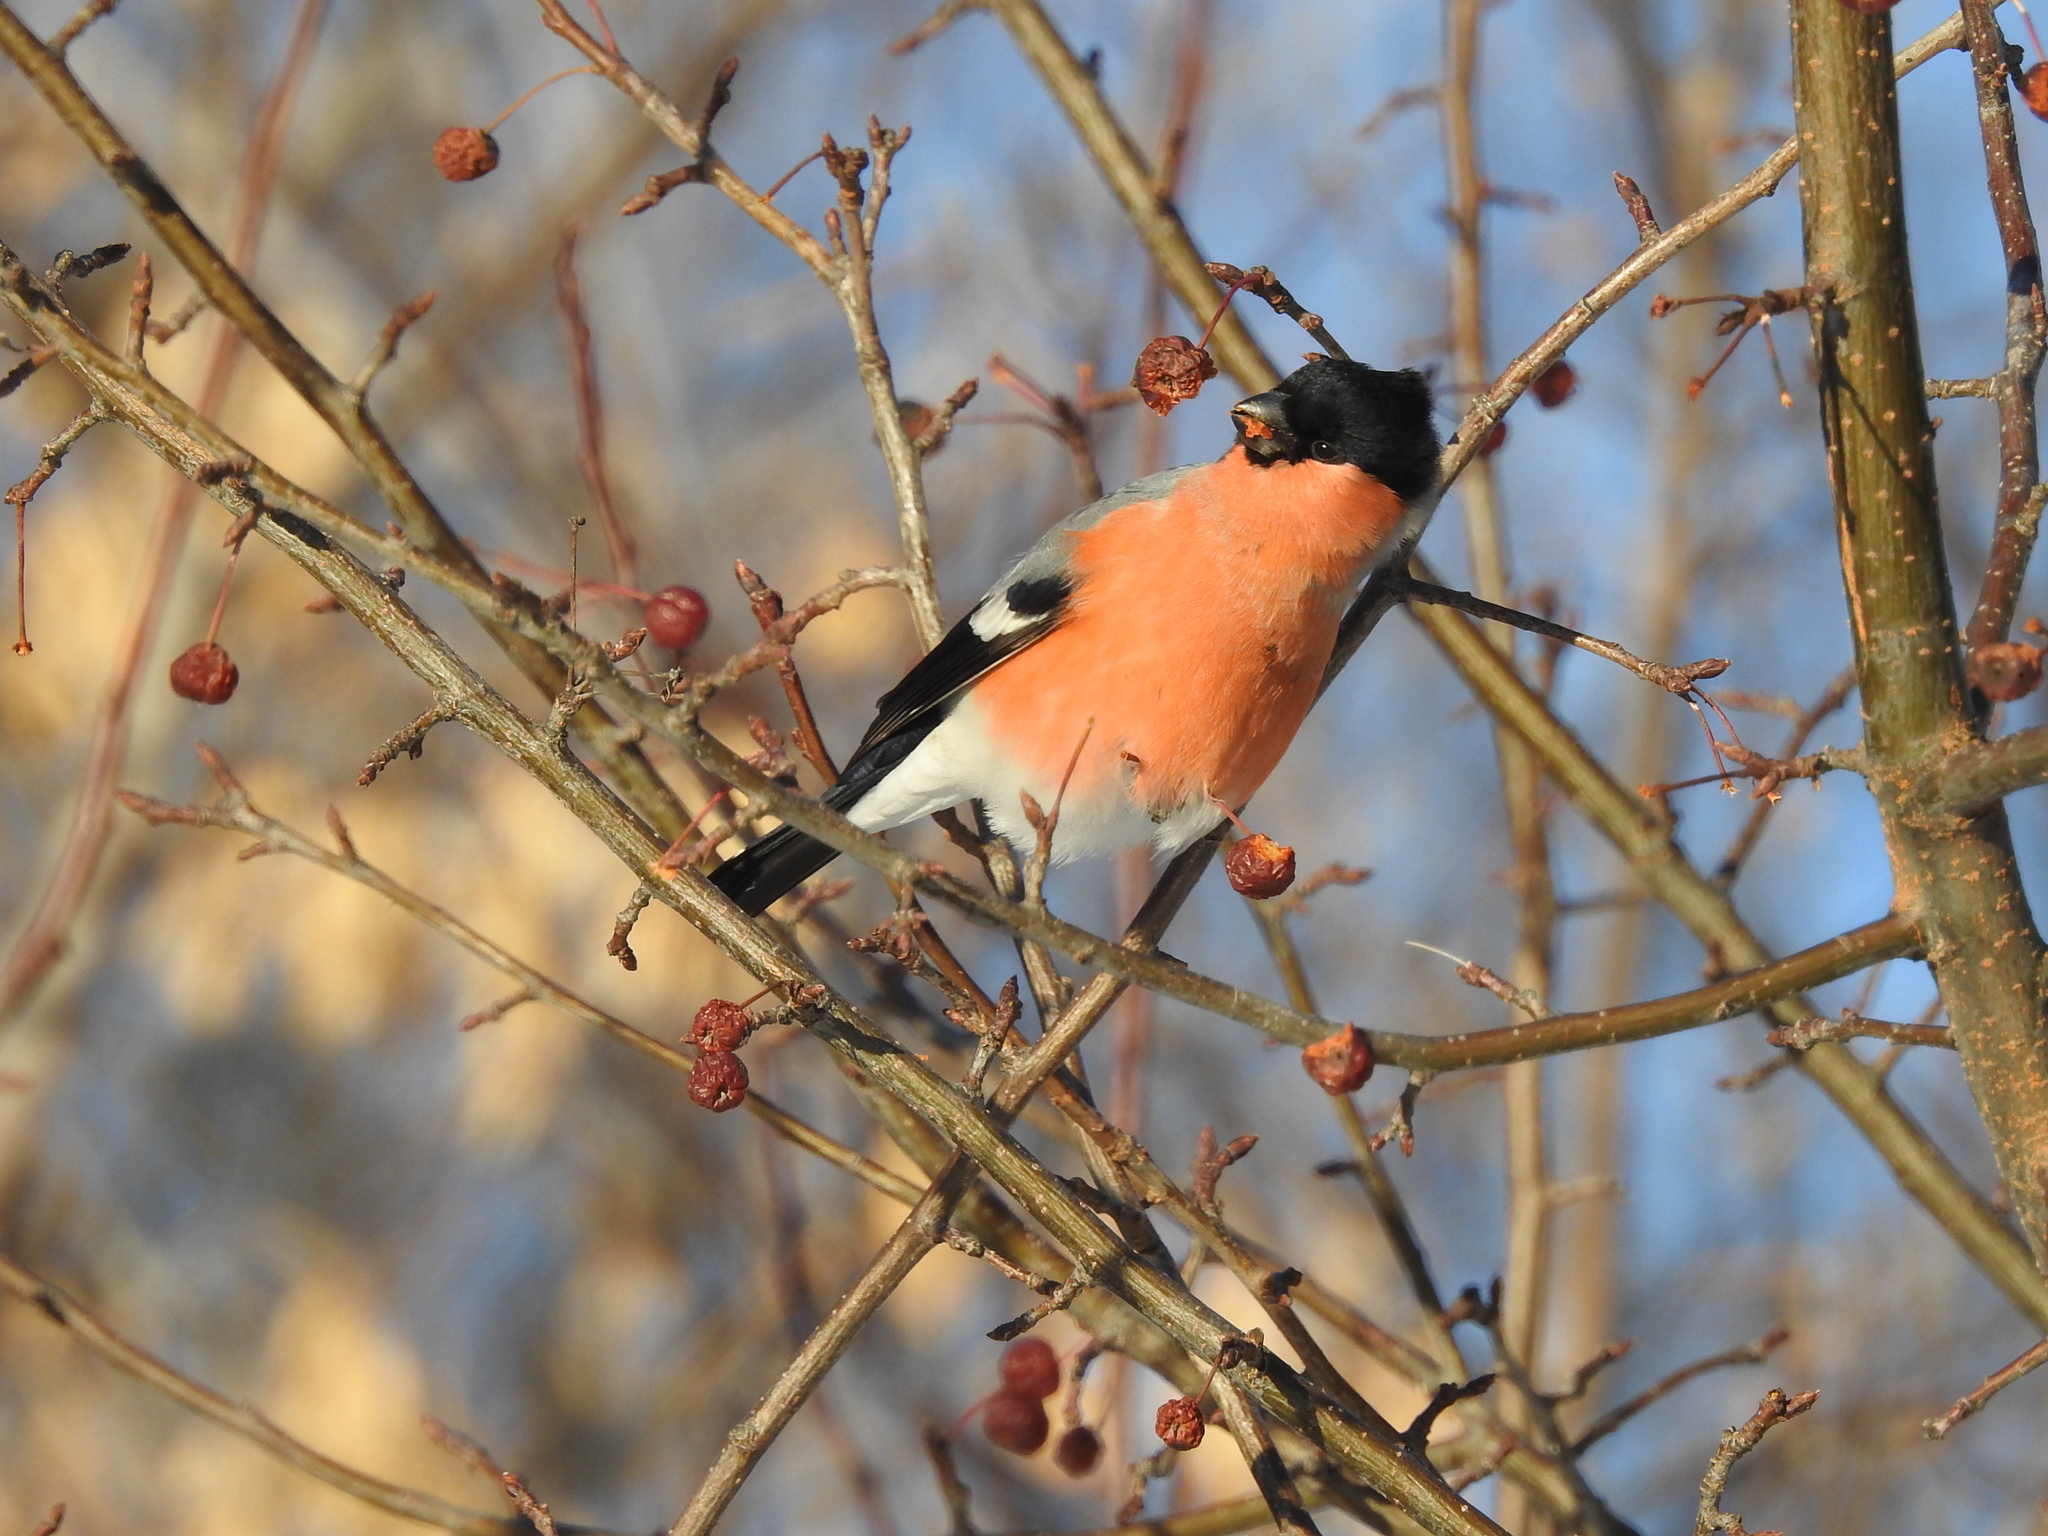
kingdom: Animalia
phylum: Chordata
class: Aves
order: Passeriformes
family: Fringillidae
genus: Pyrrhula
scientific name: Pyrrhula pyrrhula
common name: Eurasian bullfinch
